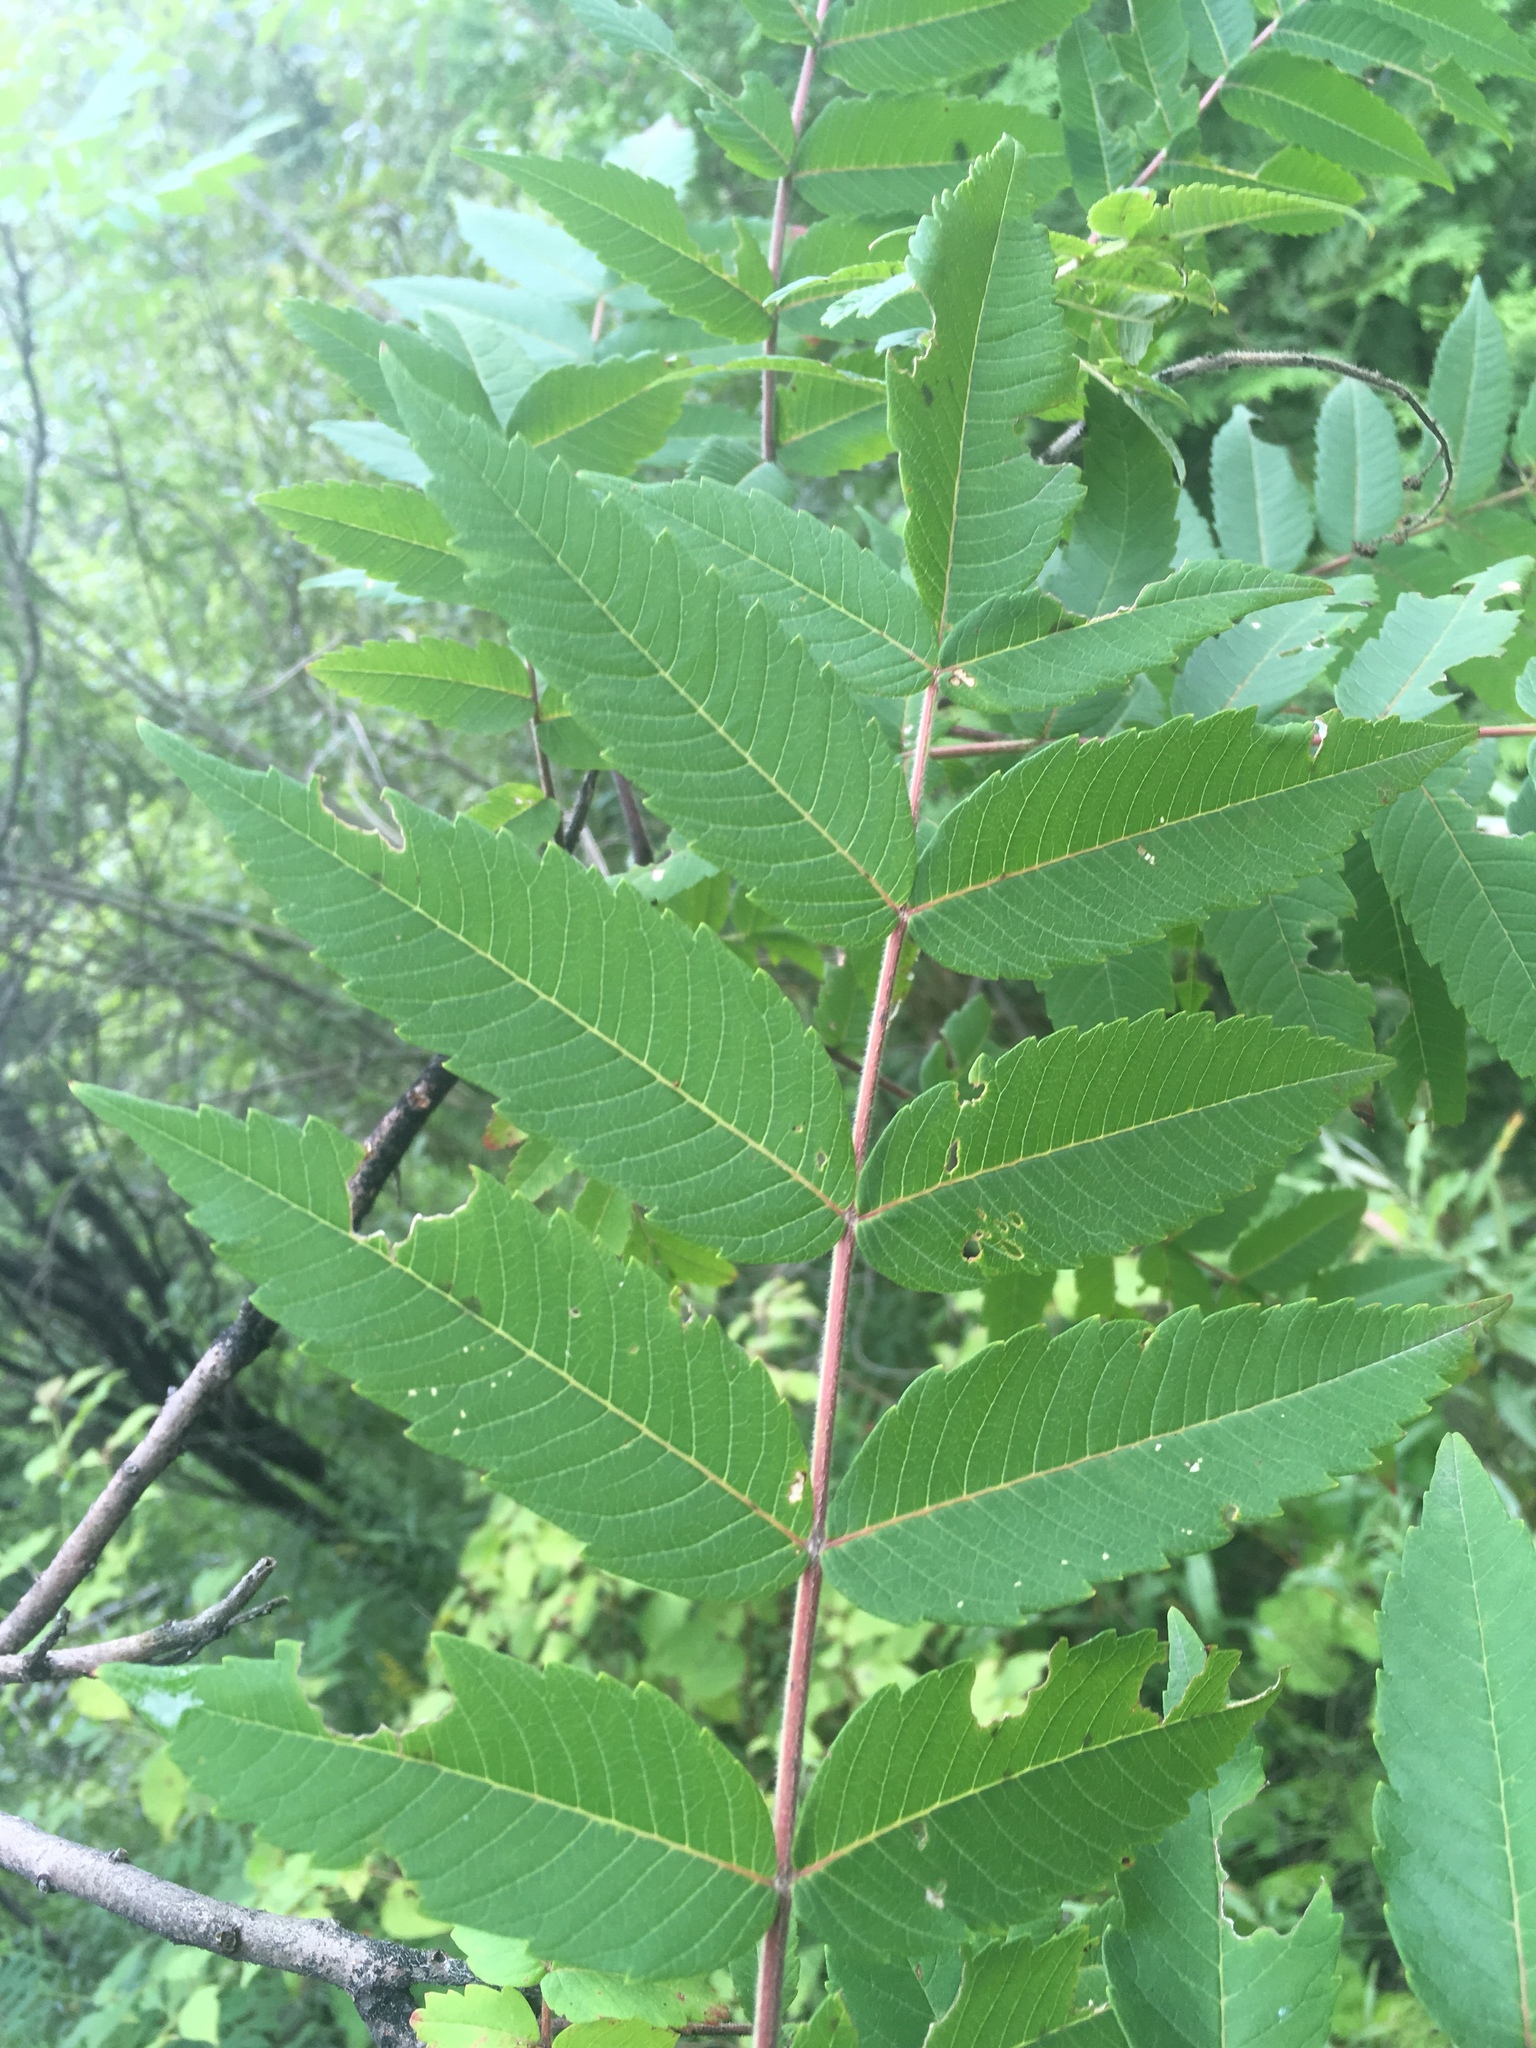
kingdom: Plantae
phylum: Tracheophyta
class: Magnoliopsida
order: Sapindales
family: Anacardiaceae
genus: Rhus
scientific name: Rhus typhina
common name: Staghorn sumac
